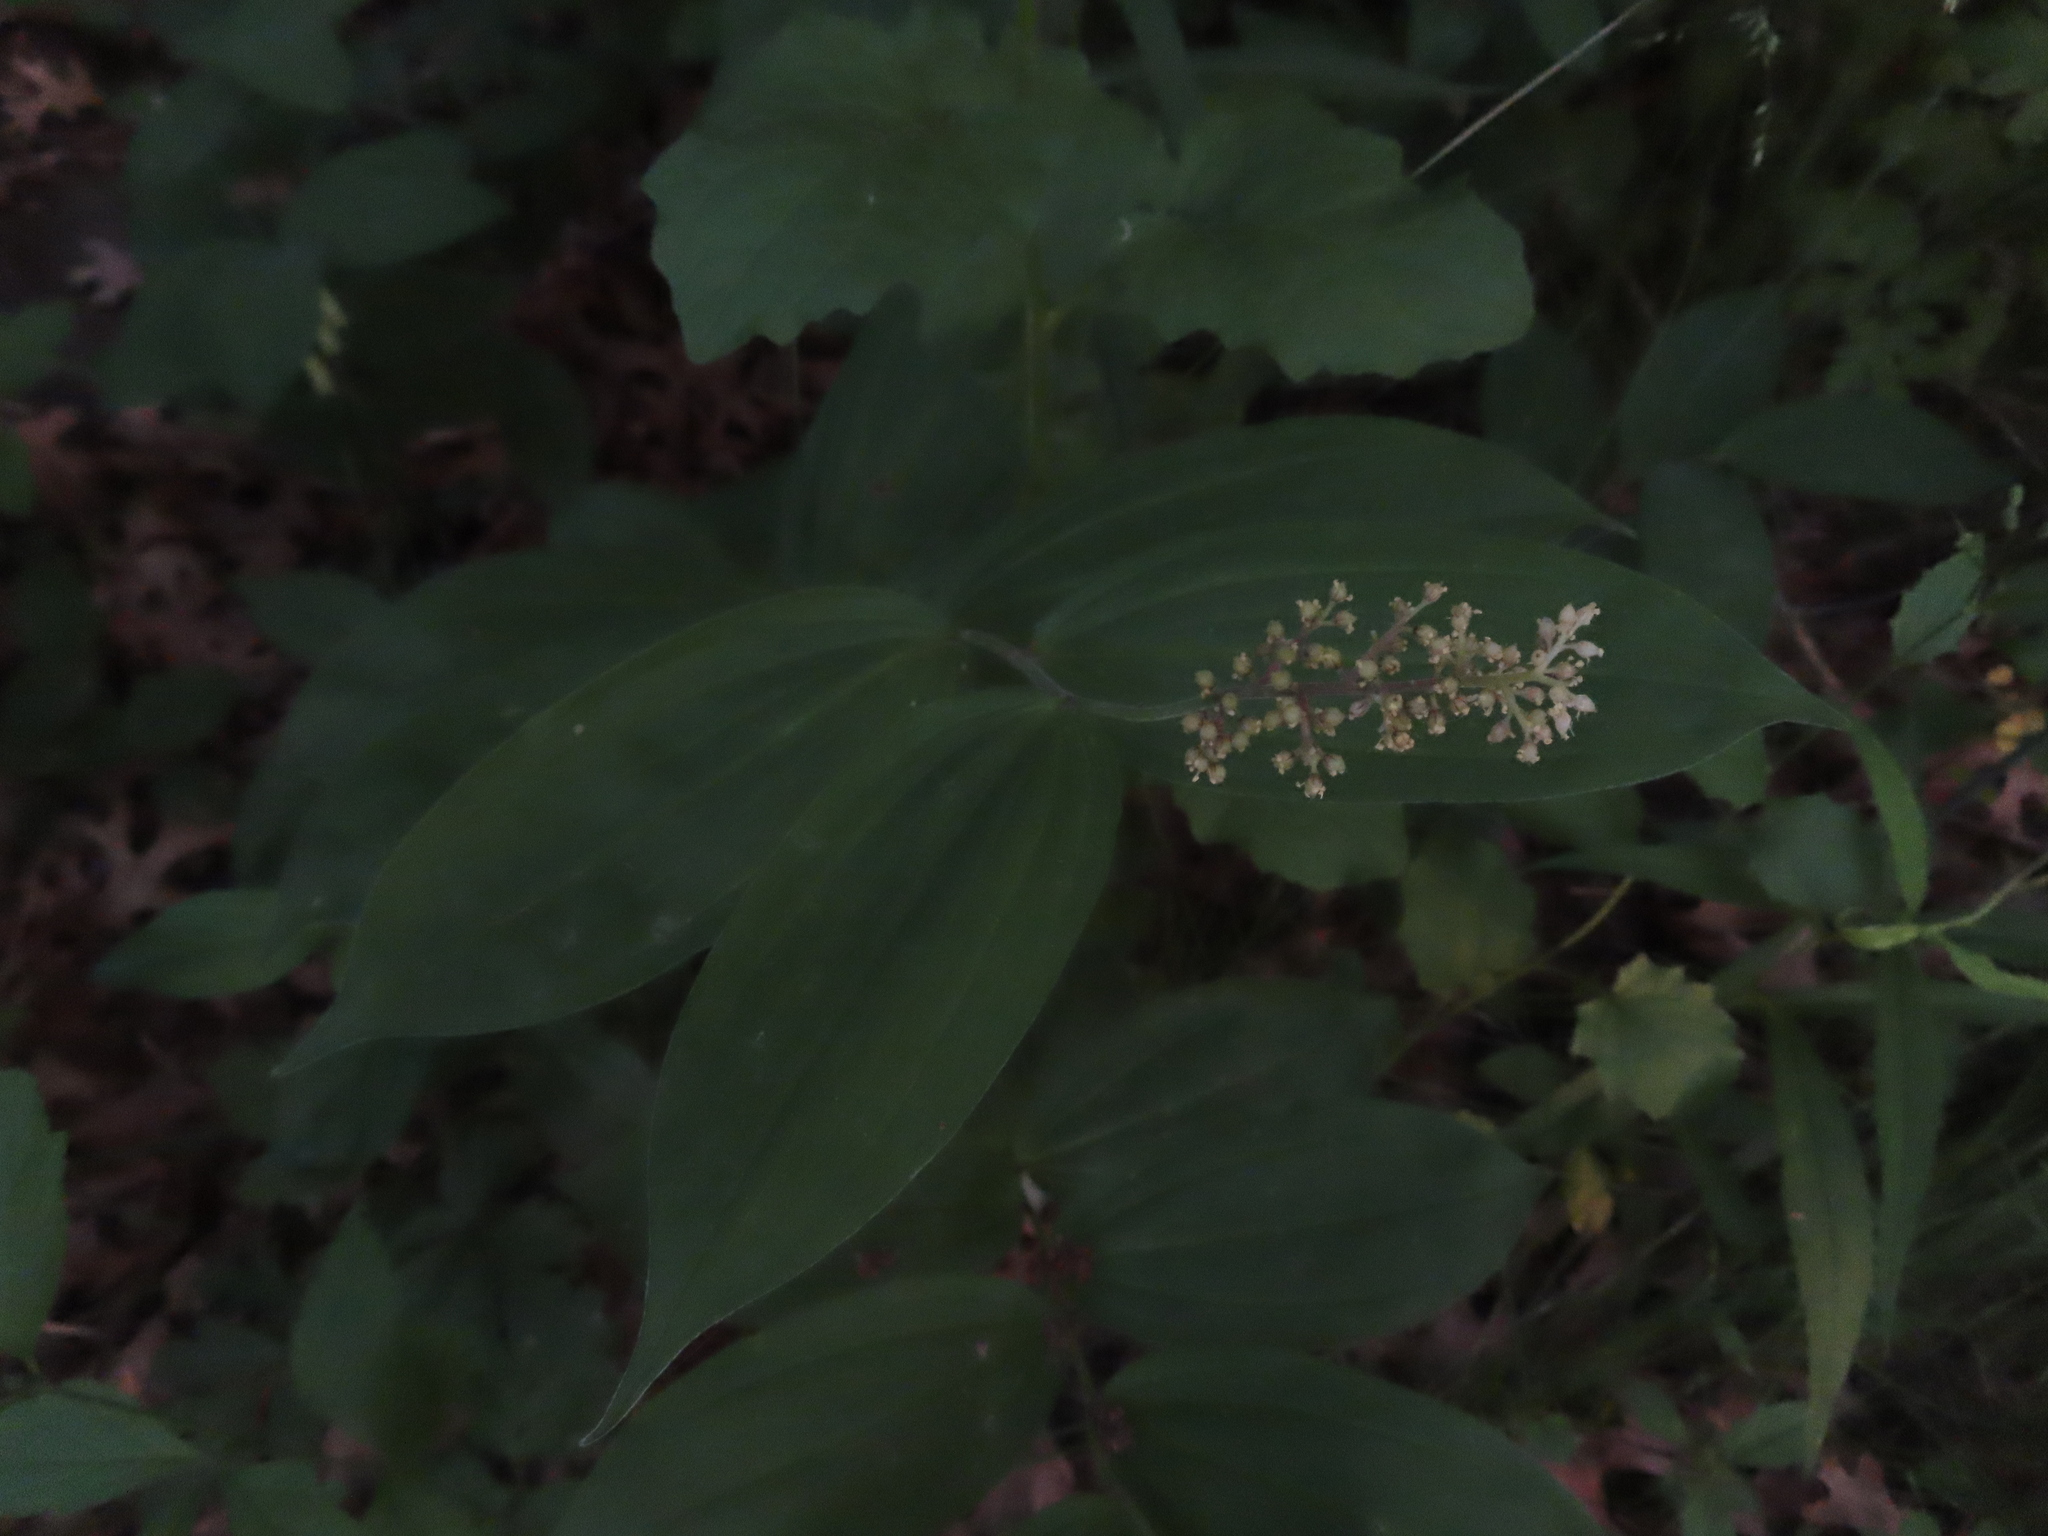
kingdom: Plantae
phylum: Tracheophyta
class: Liliopsida
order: Asparagales
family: Asparagaceae
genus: Maianthemum
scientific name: Maianthemum racemosum
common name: False spikenard
